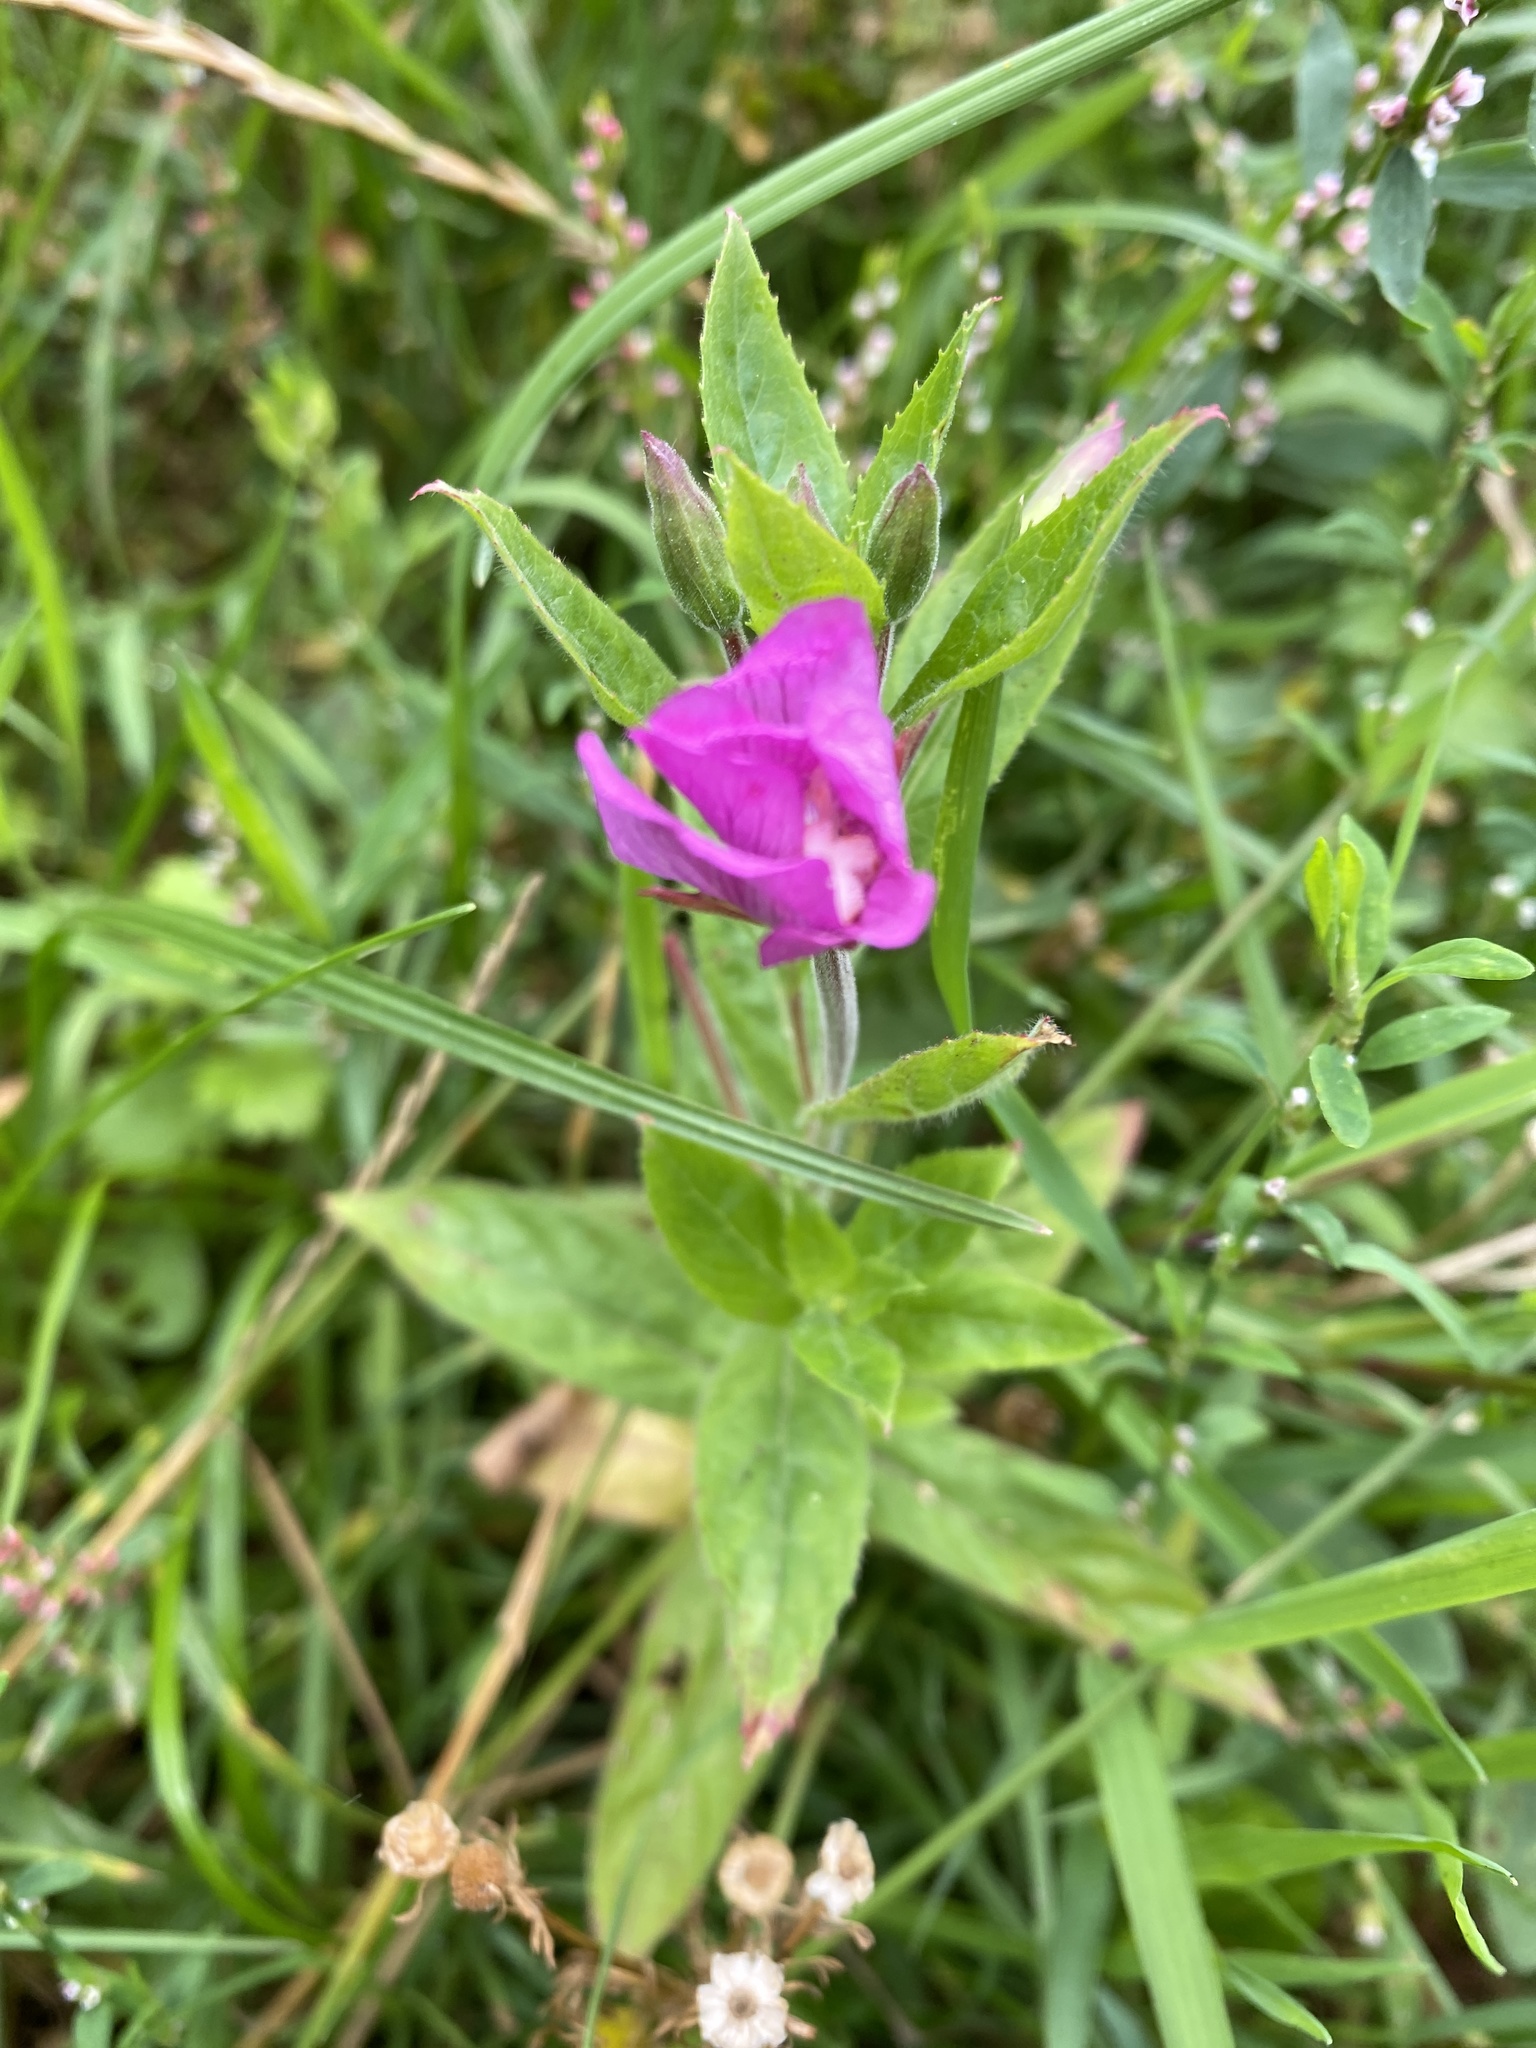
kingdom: Plantae
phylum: Tracheophyta
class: Magnoliopsida
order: Myrtales
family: Onagraceae
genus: Epilobium
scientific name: Epilobium hirsutum
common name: Great willowherb
